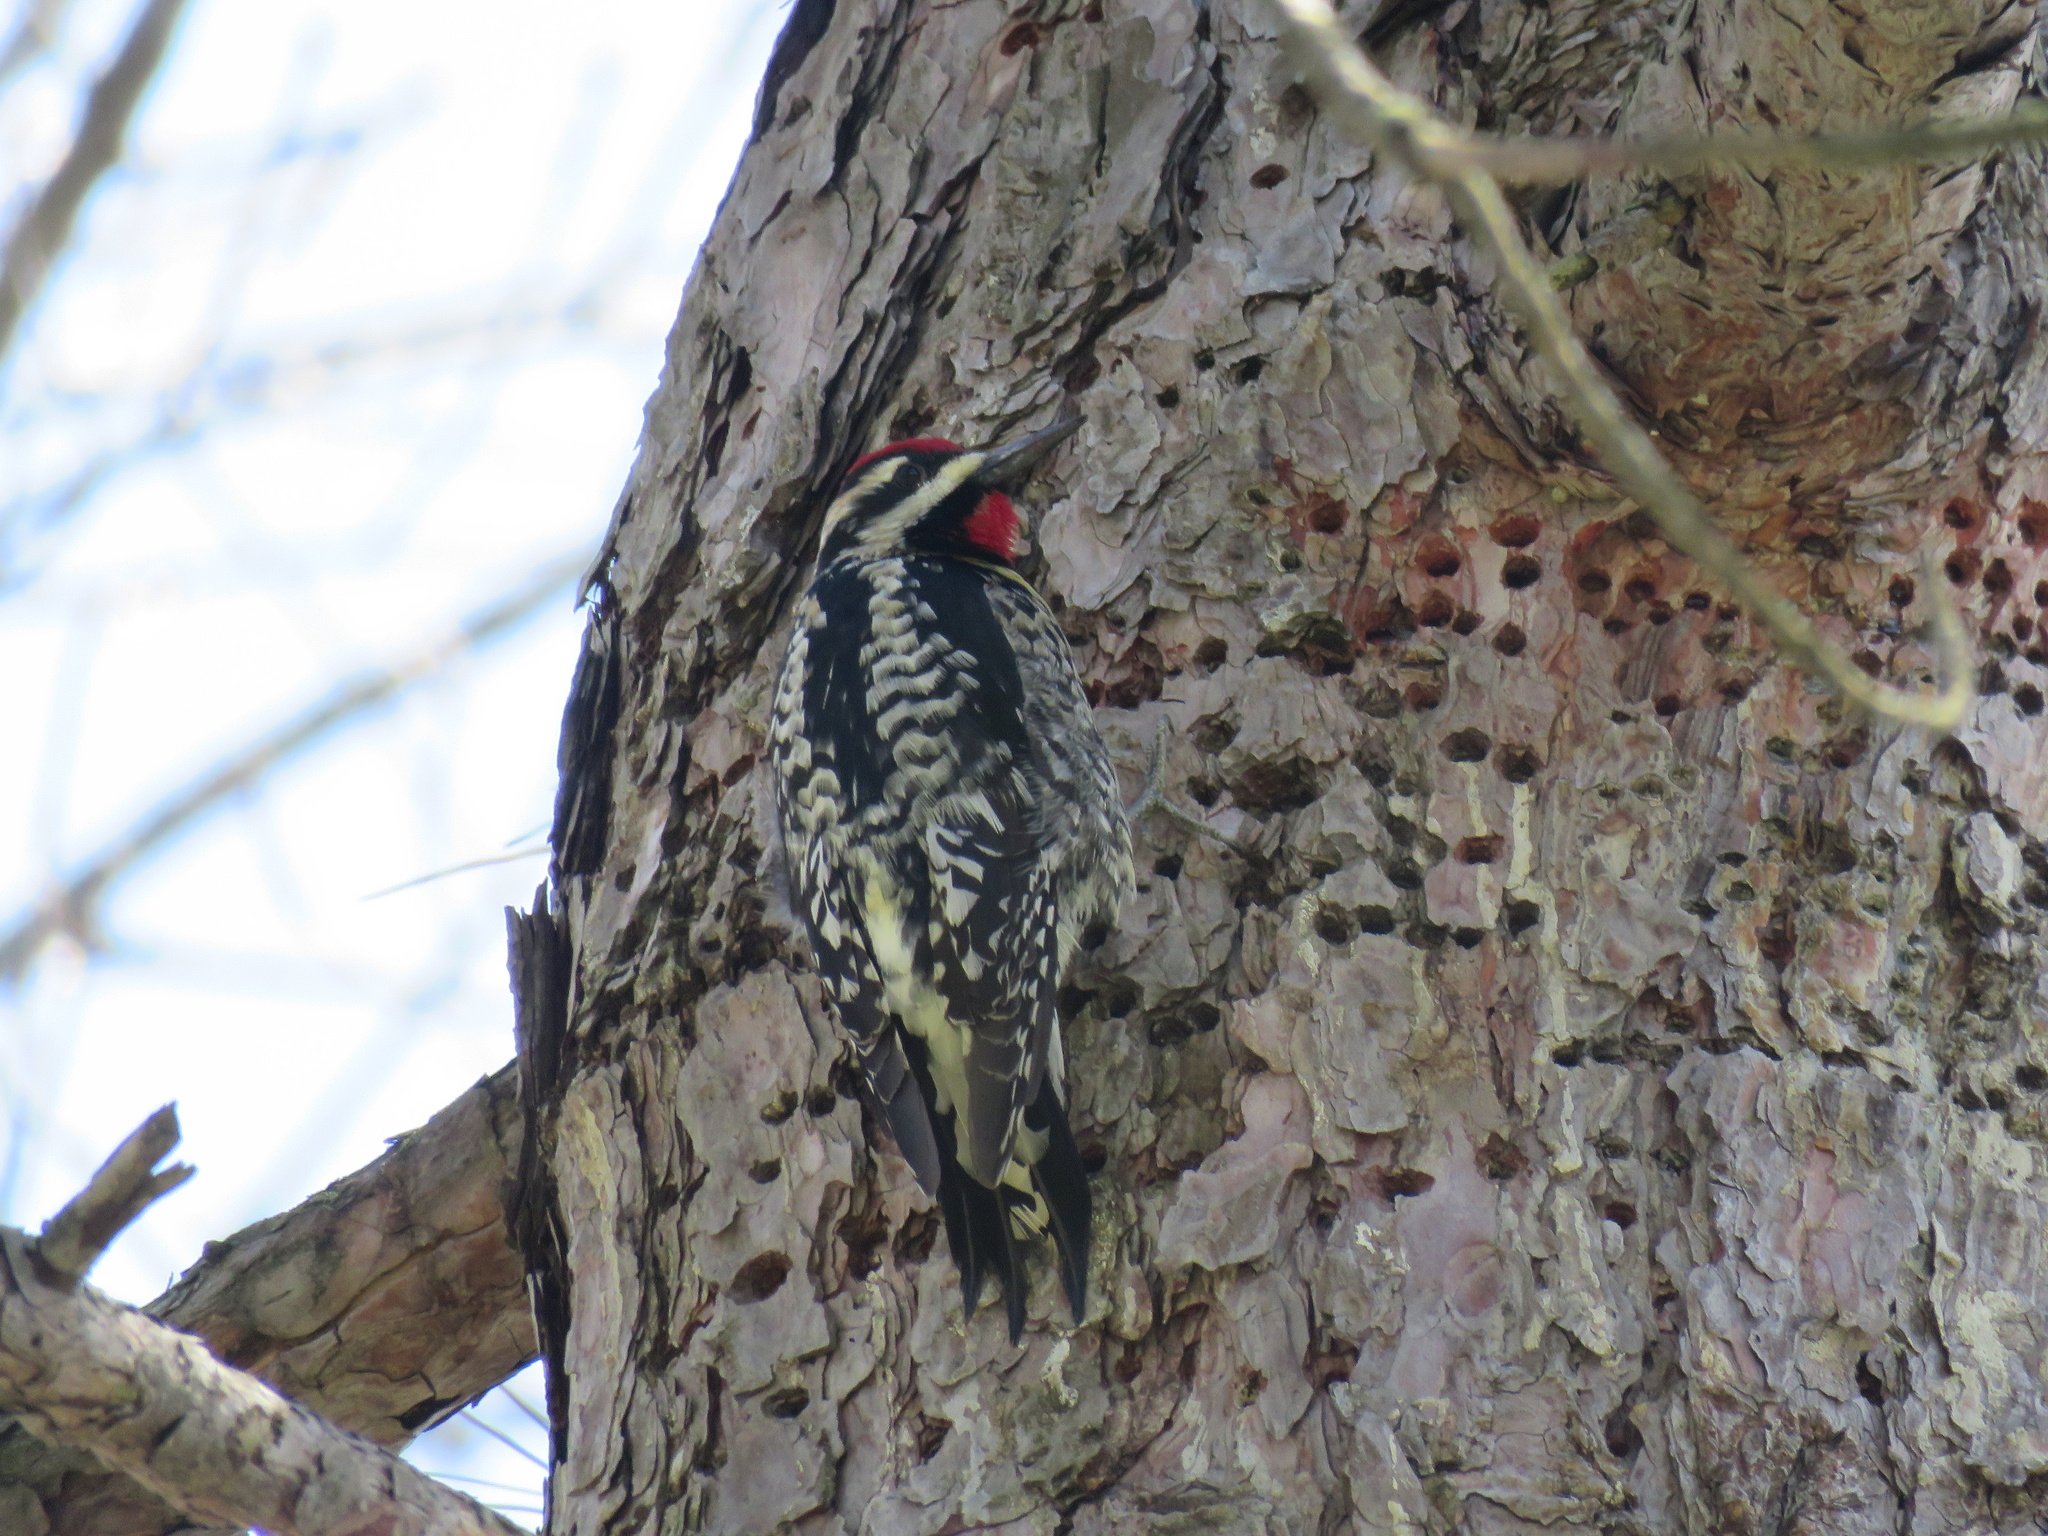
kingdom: Animalia
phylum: Chordata
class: Aves
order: Piciformes
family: Picidae
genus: Sphyrapicus
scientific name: Sphyrapicus varius
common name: Yellow-bellied sapsucker
